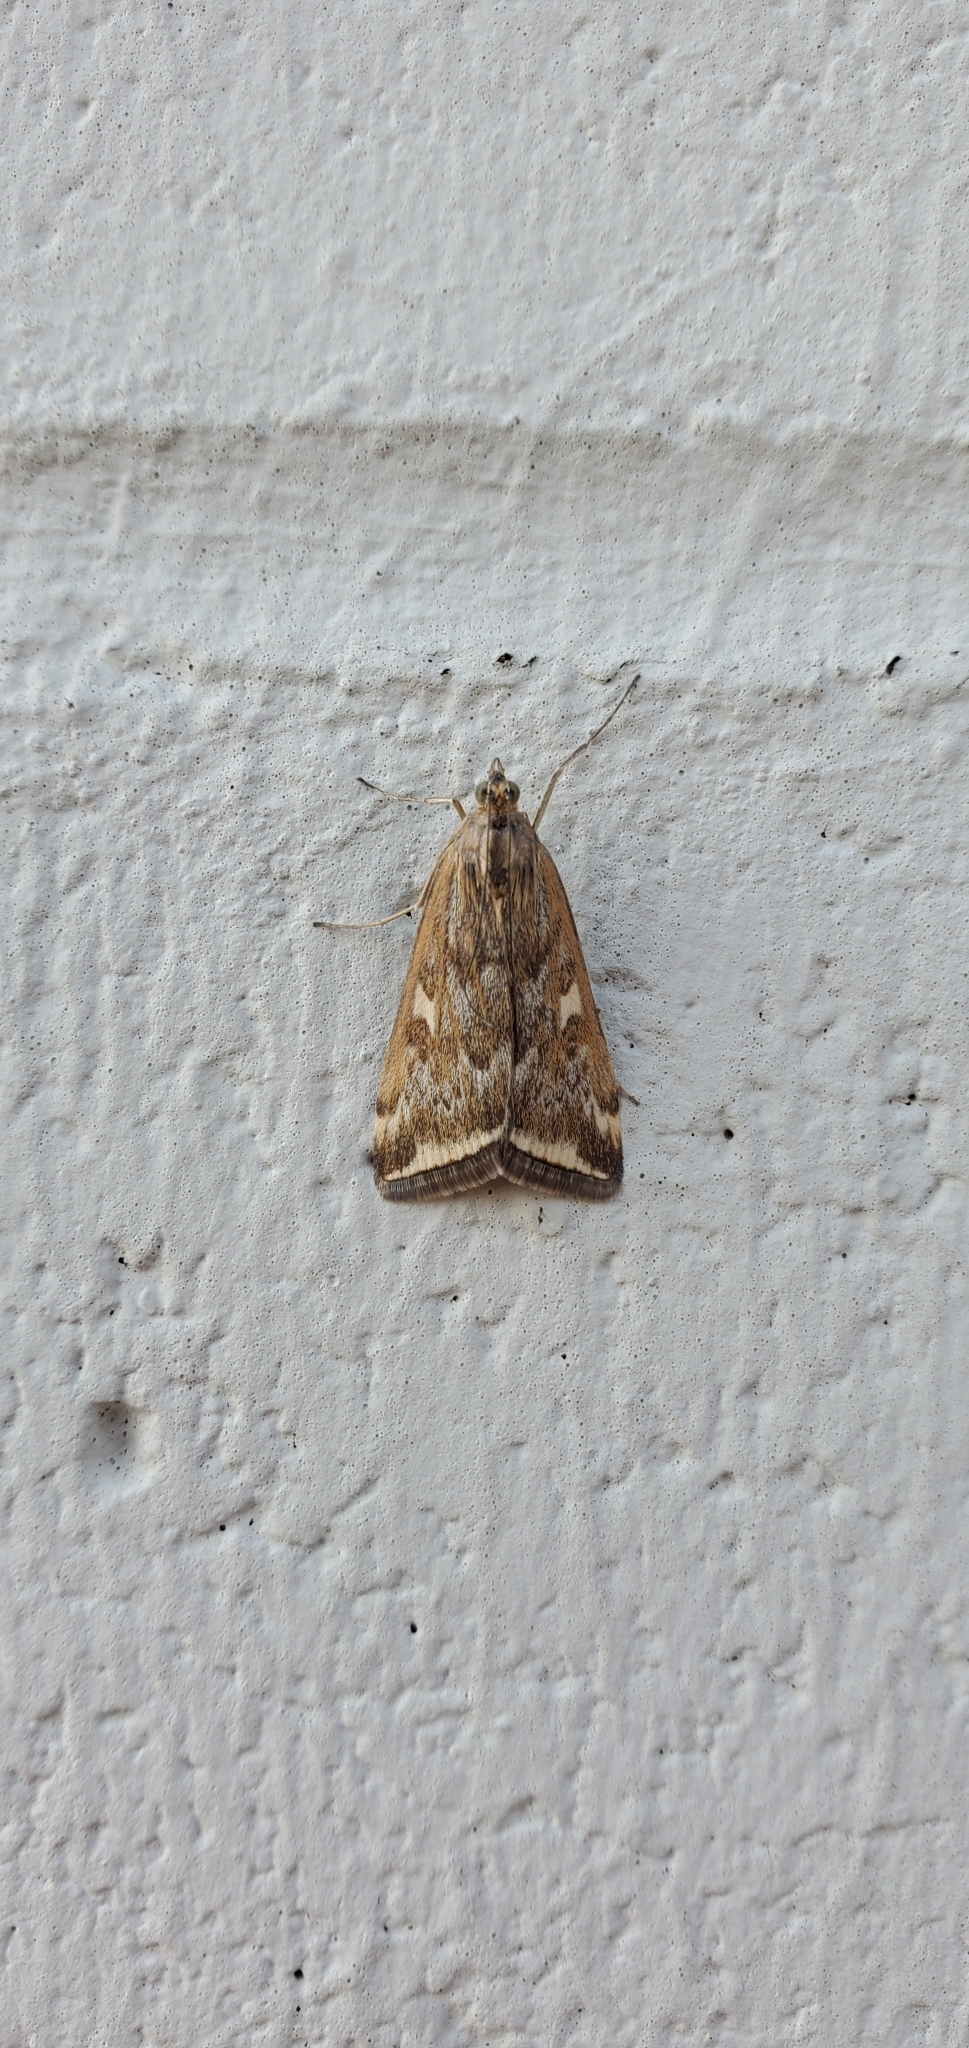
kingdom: Animalia
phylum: Arthropoda
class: Insecta
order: Lepidoptera
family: Crambidae
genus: Loxostege
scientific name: Loxostege
